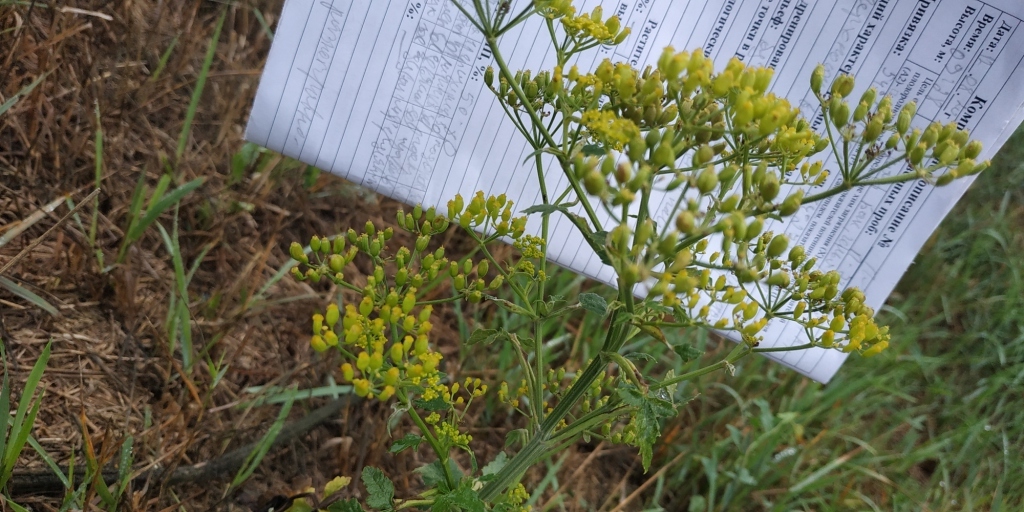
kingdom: Plantae
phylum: Tracheophyta
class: Magnoliopsida
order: Apiales
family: Apiaceae
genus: Pastinaca
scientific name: Pastinaca sativa
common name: Wild parsnip
